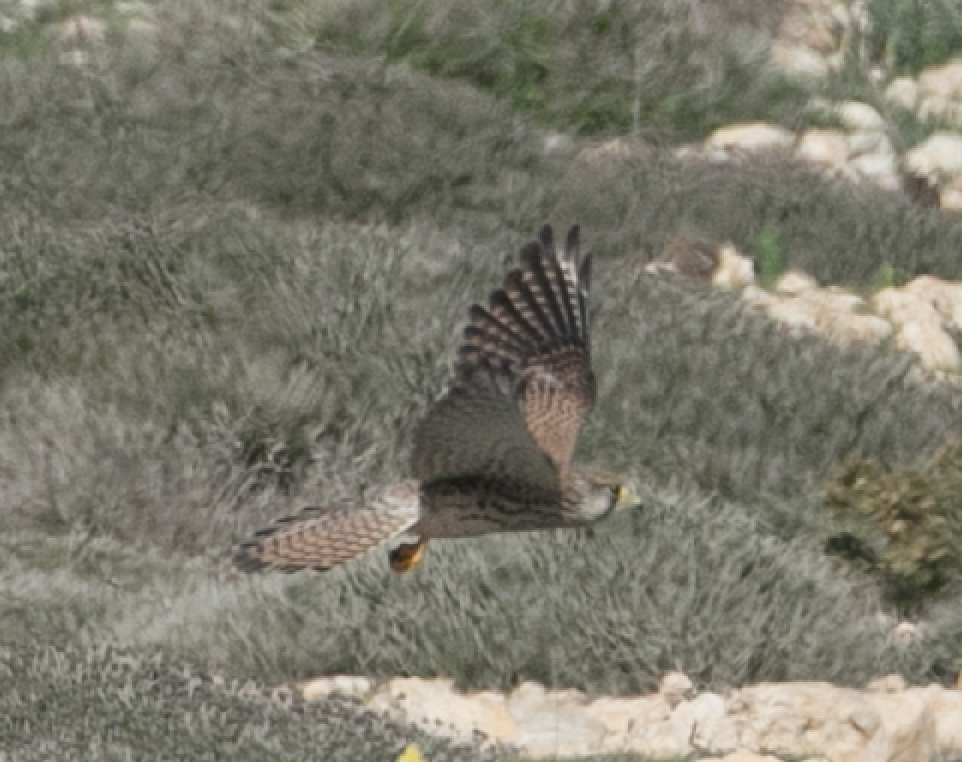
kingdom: Animalia
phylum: Chordata
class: Aves
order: Falconiformes
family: Falconidae
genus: Falco
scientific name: Falco tinnunculus
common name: Common kestrel
